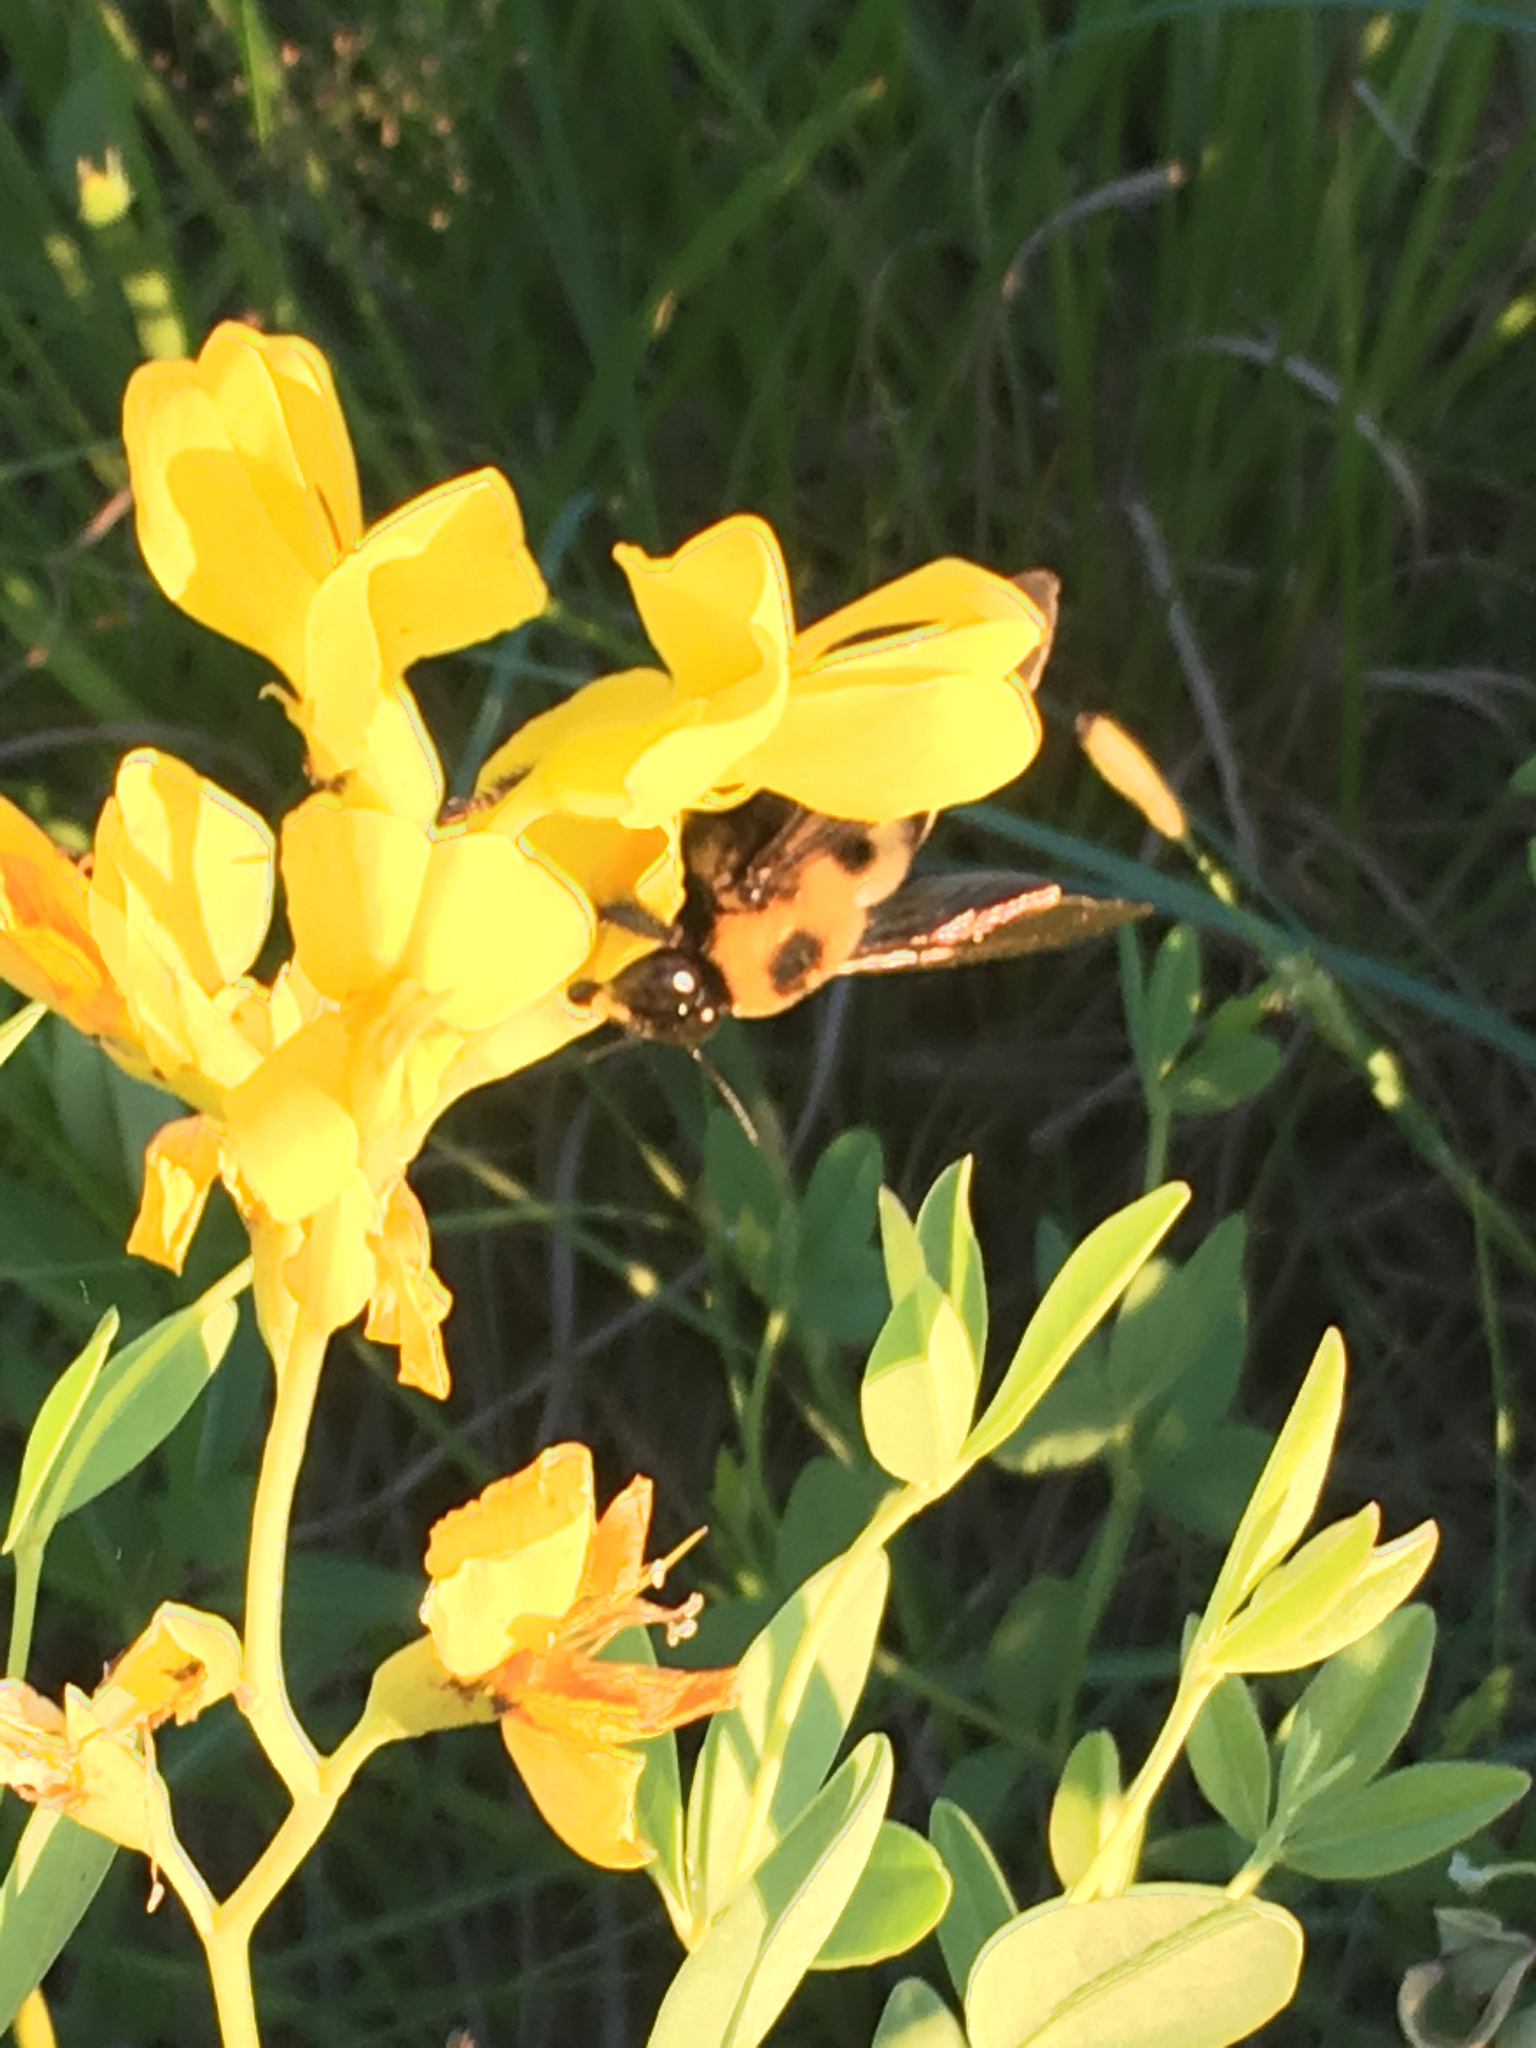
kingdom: Animalia
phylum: Arthropoda
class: Insecta
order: Hymenoptera
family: Apidae
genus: Xylocopa
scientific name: Xylocopa virginica
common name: Carpenter bee
